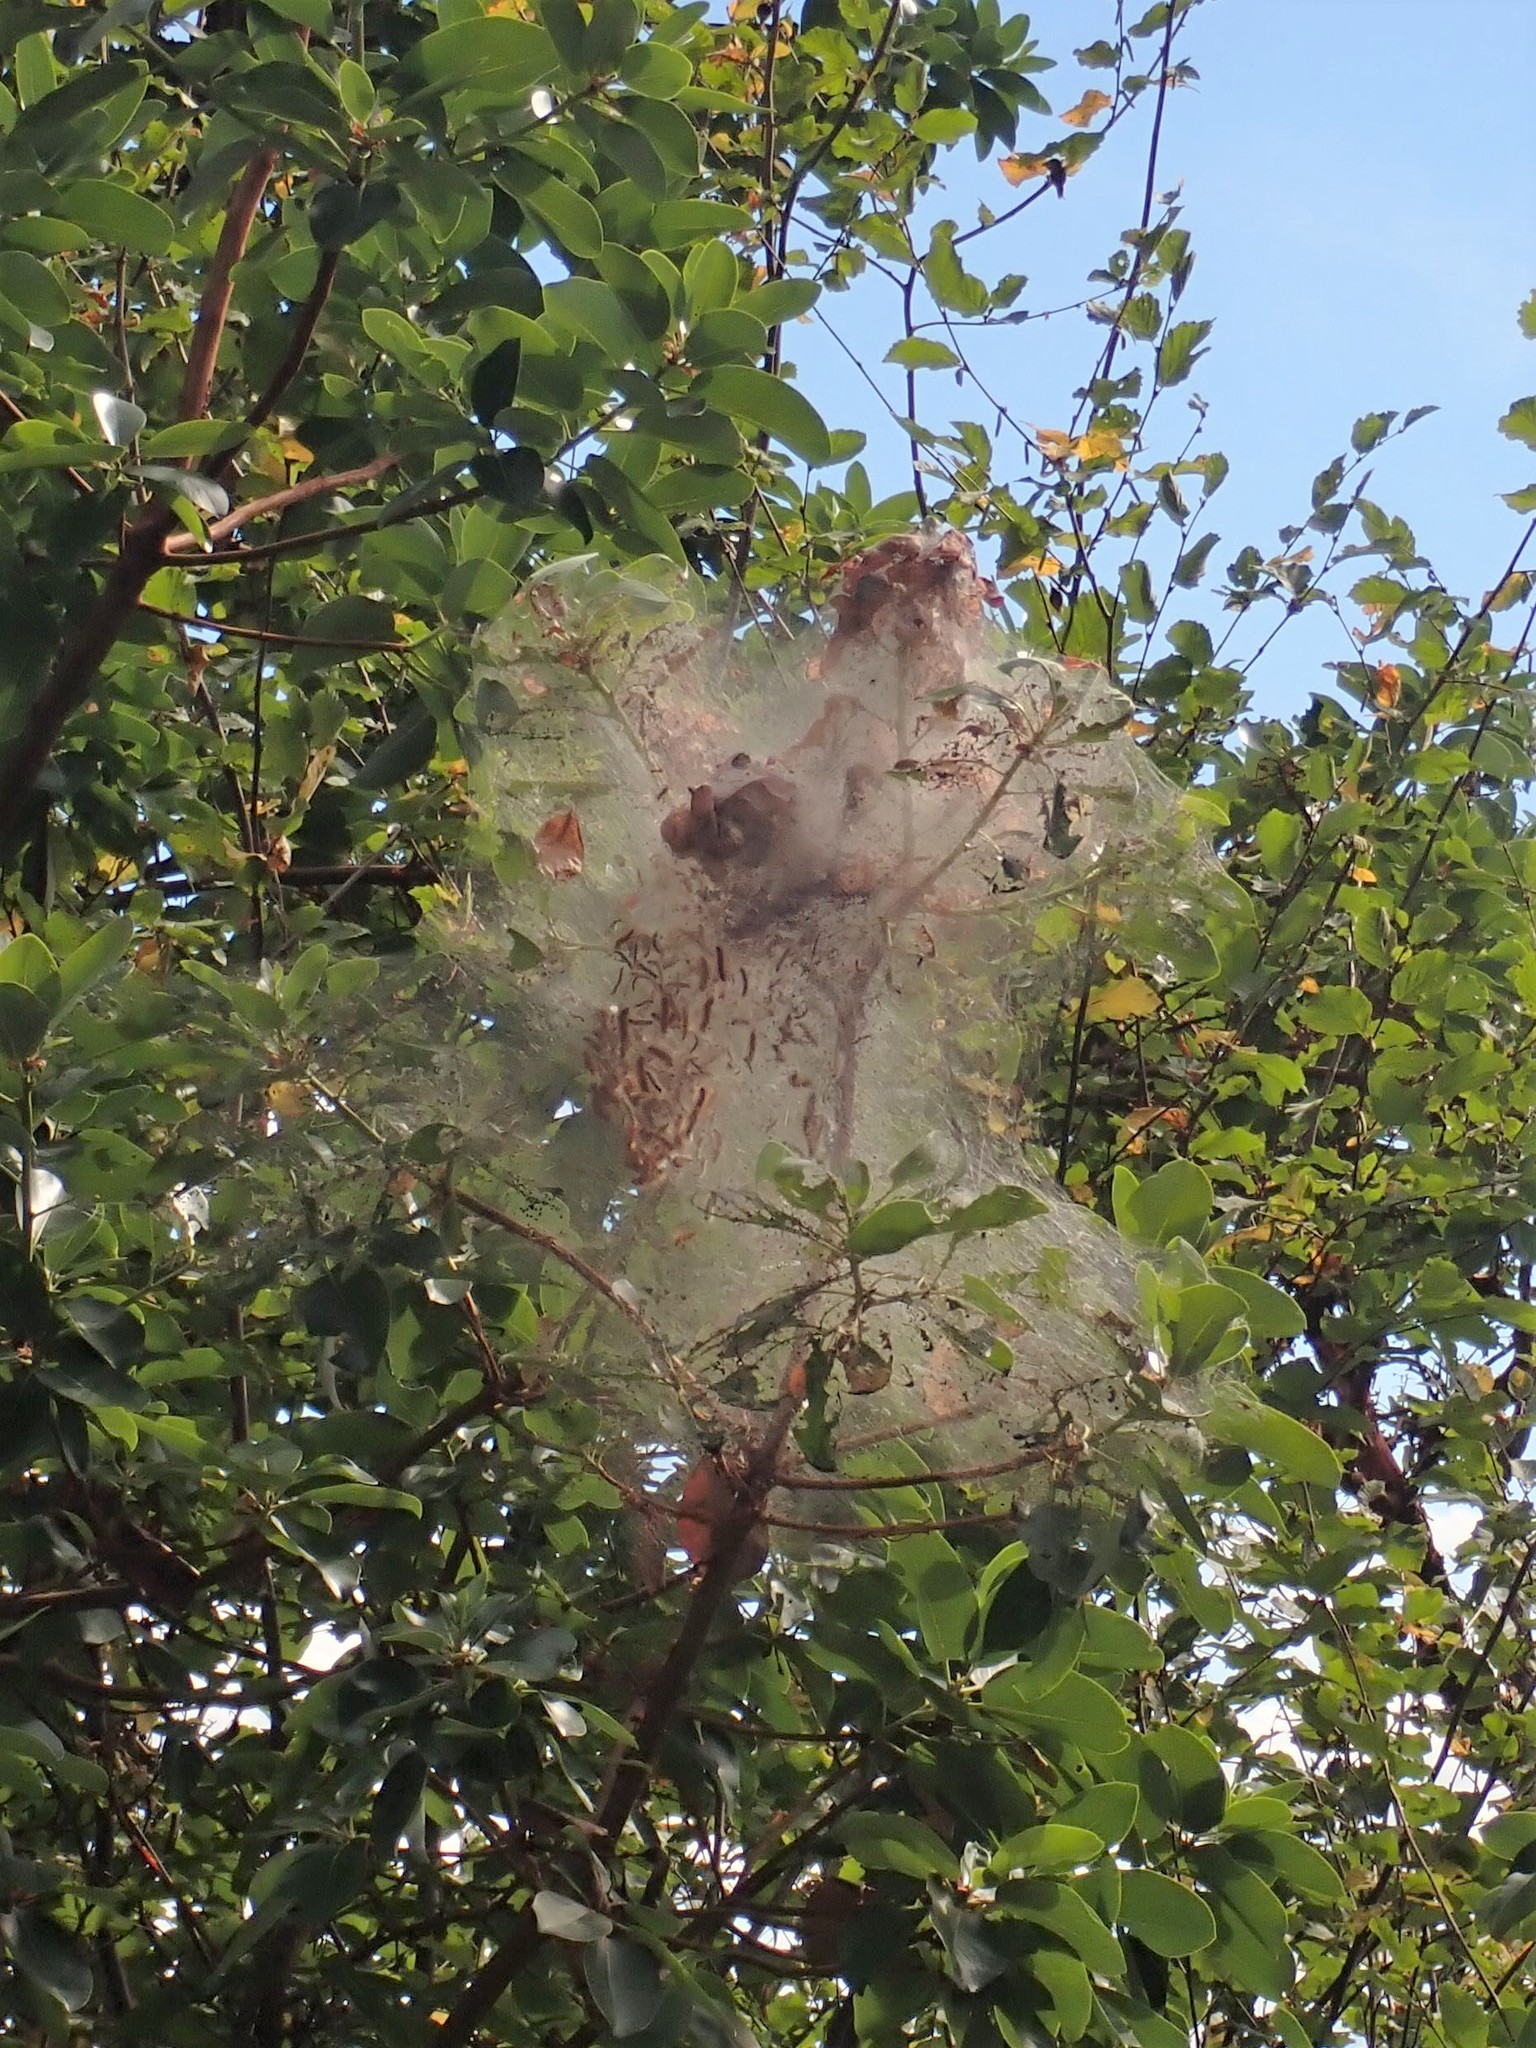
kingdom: Animalia
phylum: Arthropoda
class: Insecta
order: Lepidoptera
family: Erebidae
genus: Hyphantria
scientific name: Hyphantria cunea
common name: American white moth
